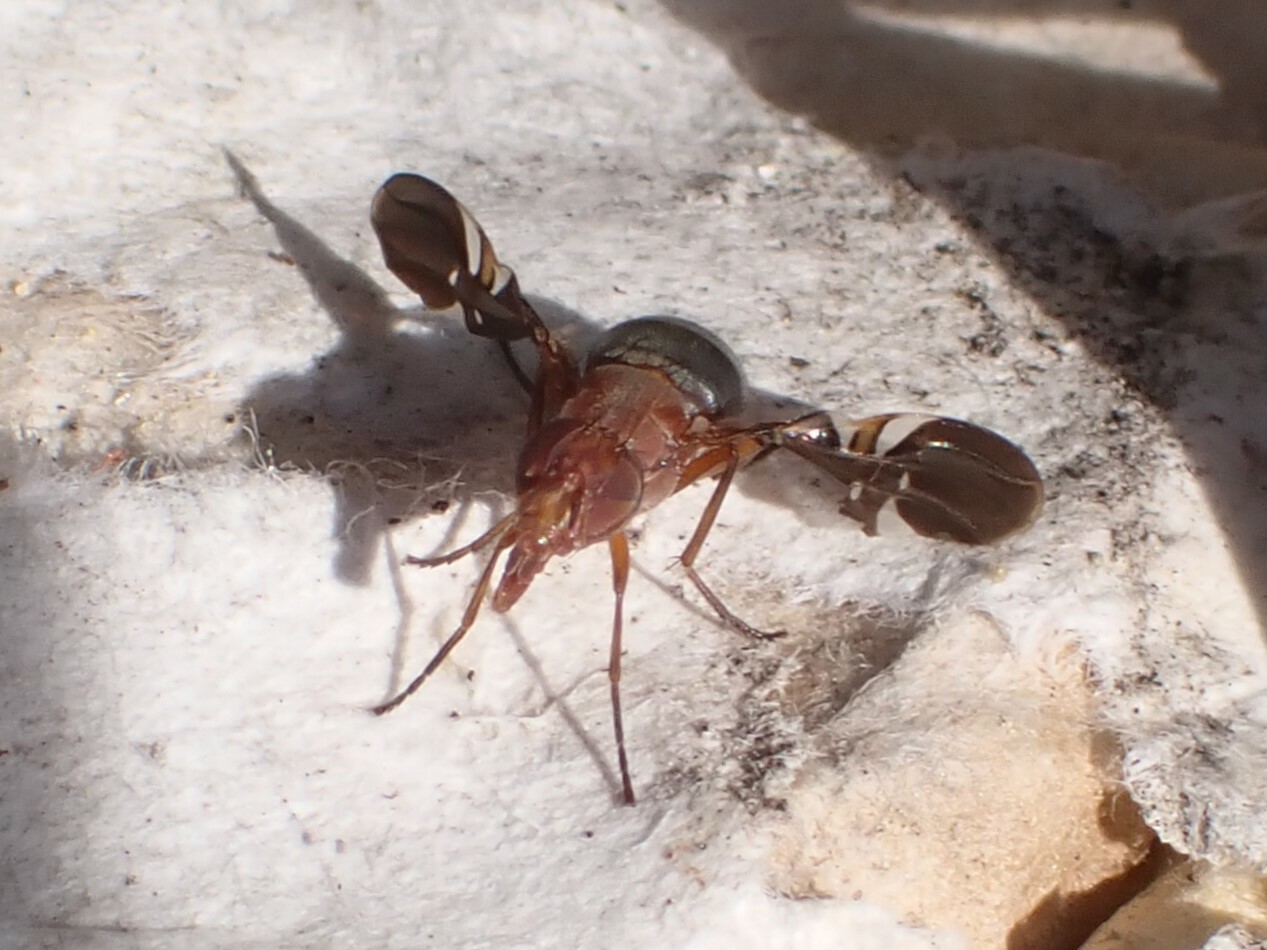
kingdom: Animalia
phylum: Arthropoda
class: Insecta
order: Diptera
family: Ulidiidae
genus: Delphinia
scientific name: Delphinia picta
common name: Common picture-winged fly
